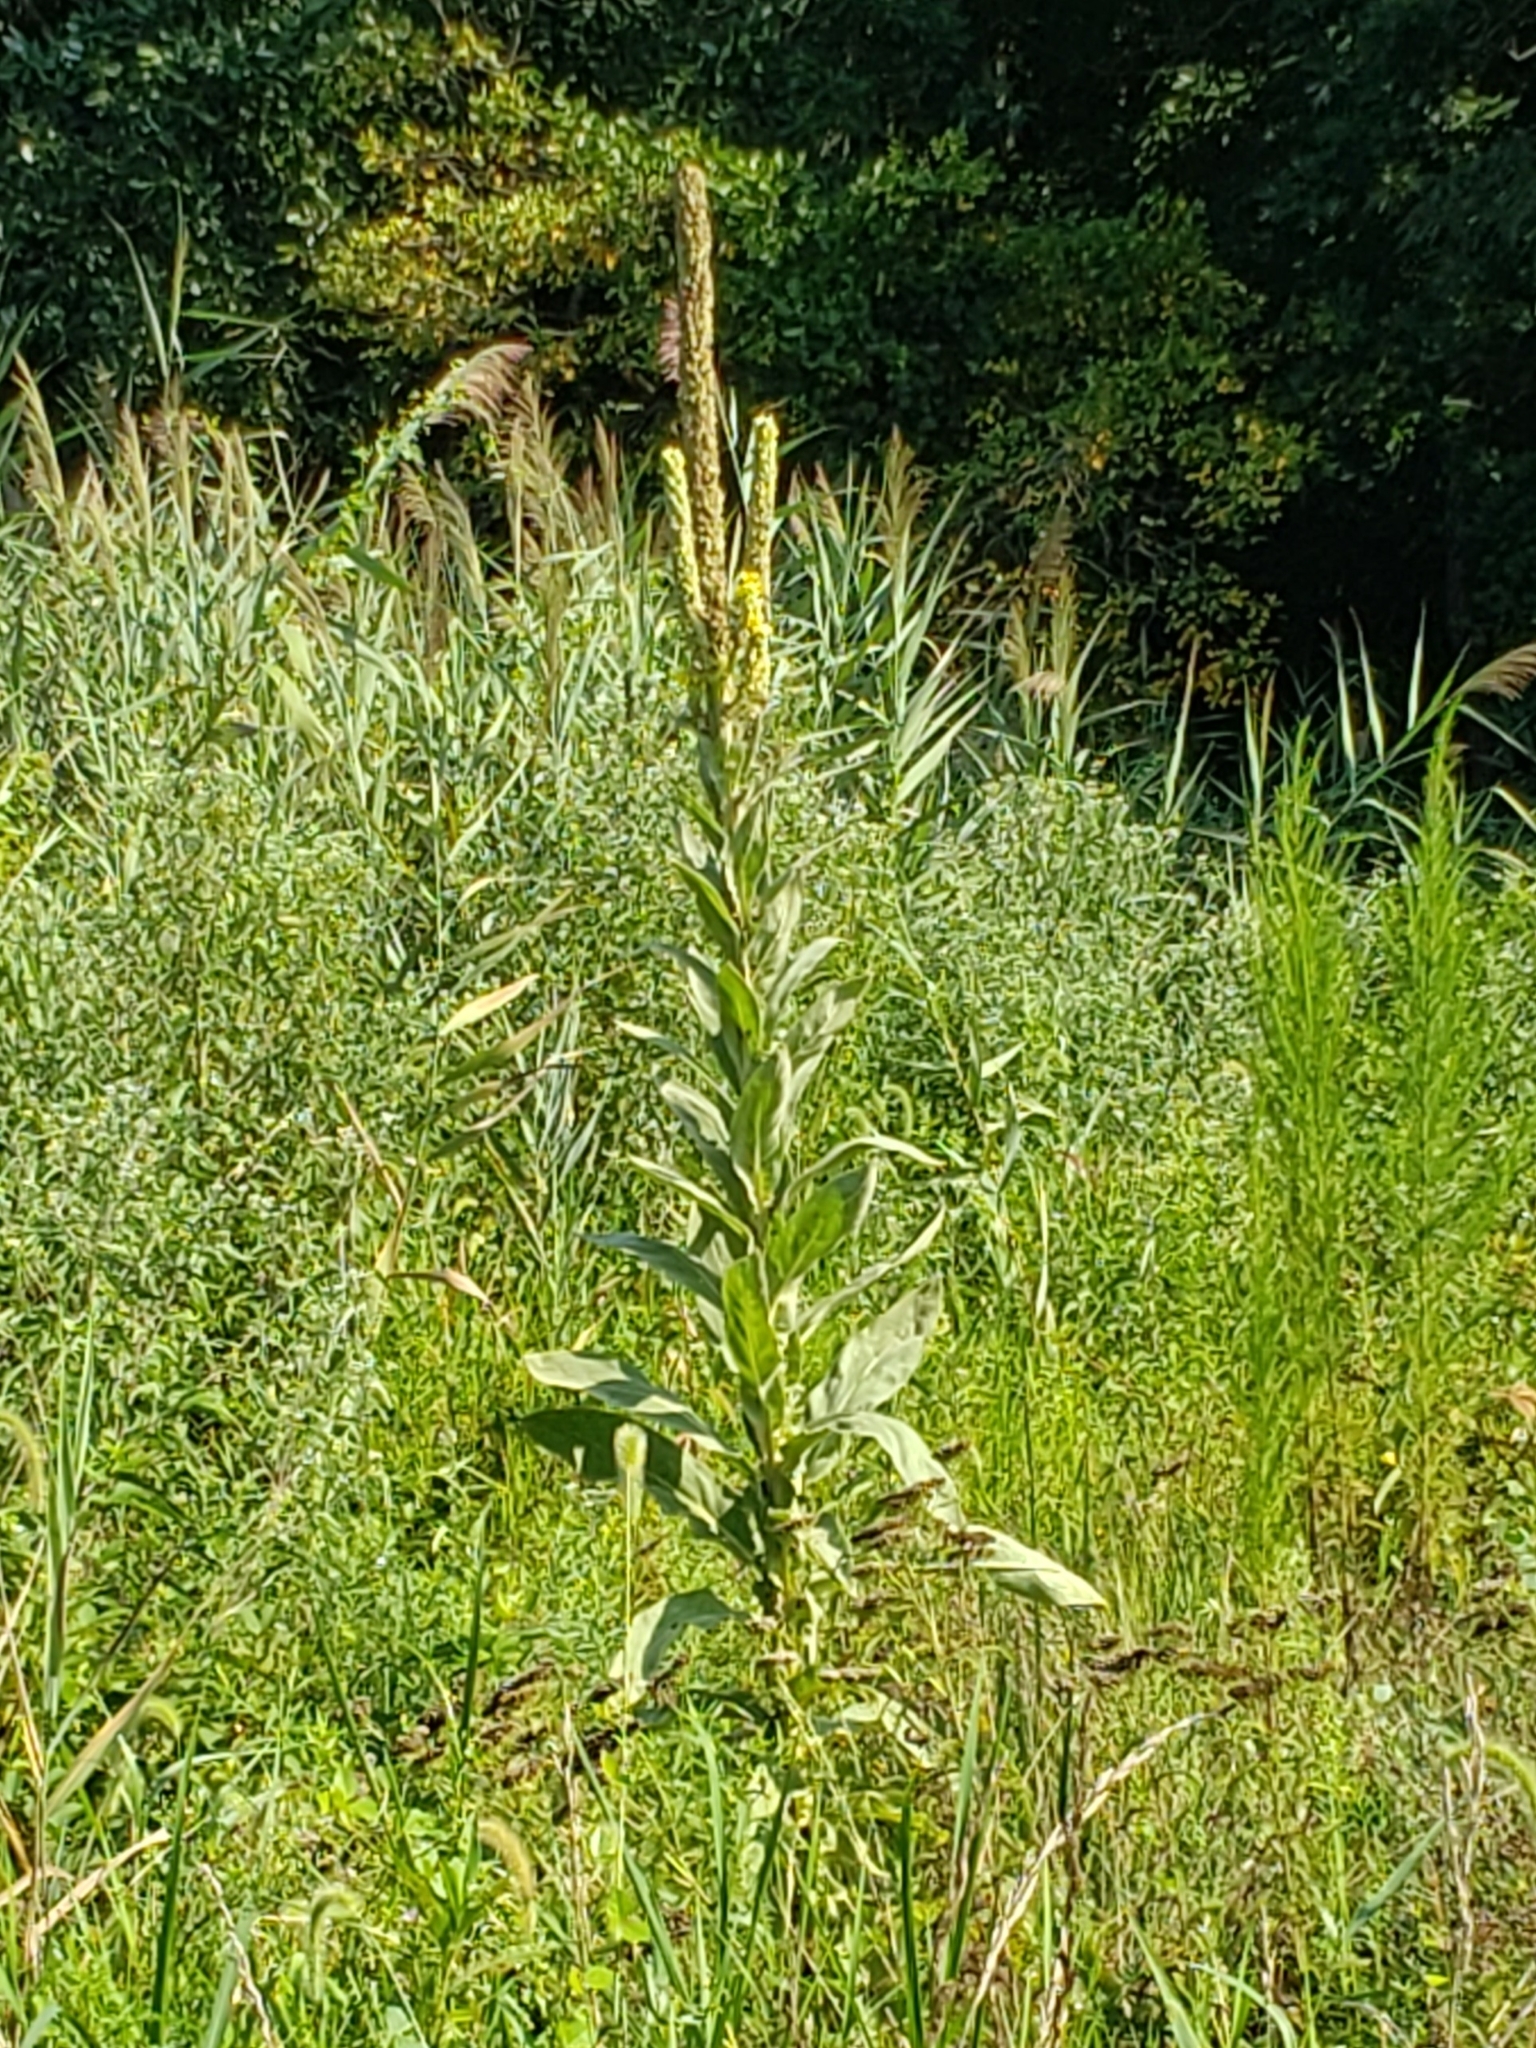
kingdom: Plantae
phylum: Tracheophyta
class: Magnoliopsida
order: Lamiales
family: Scrophulariaceae
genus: Verbascum
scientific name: Verbascum thapsus
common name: Common mullein
